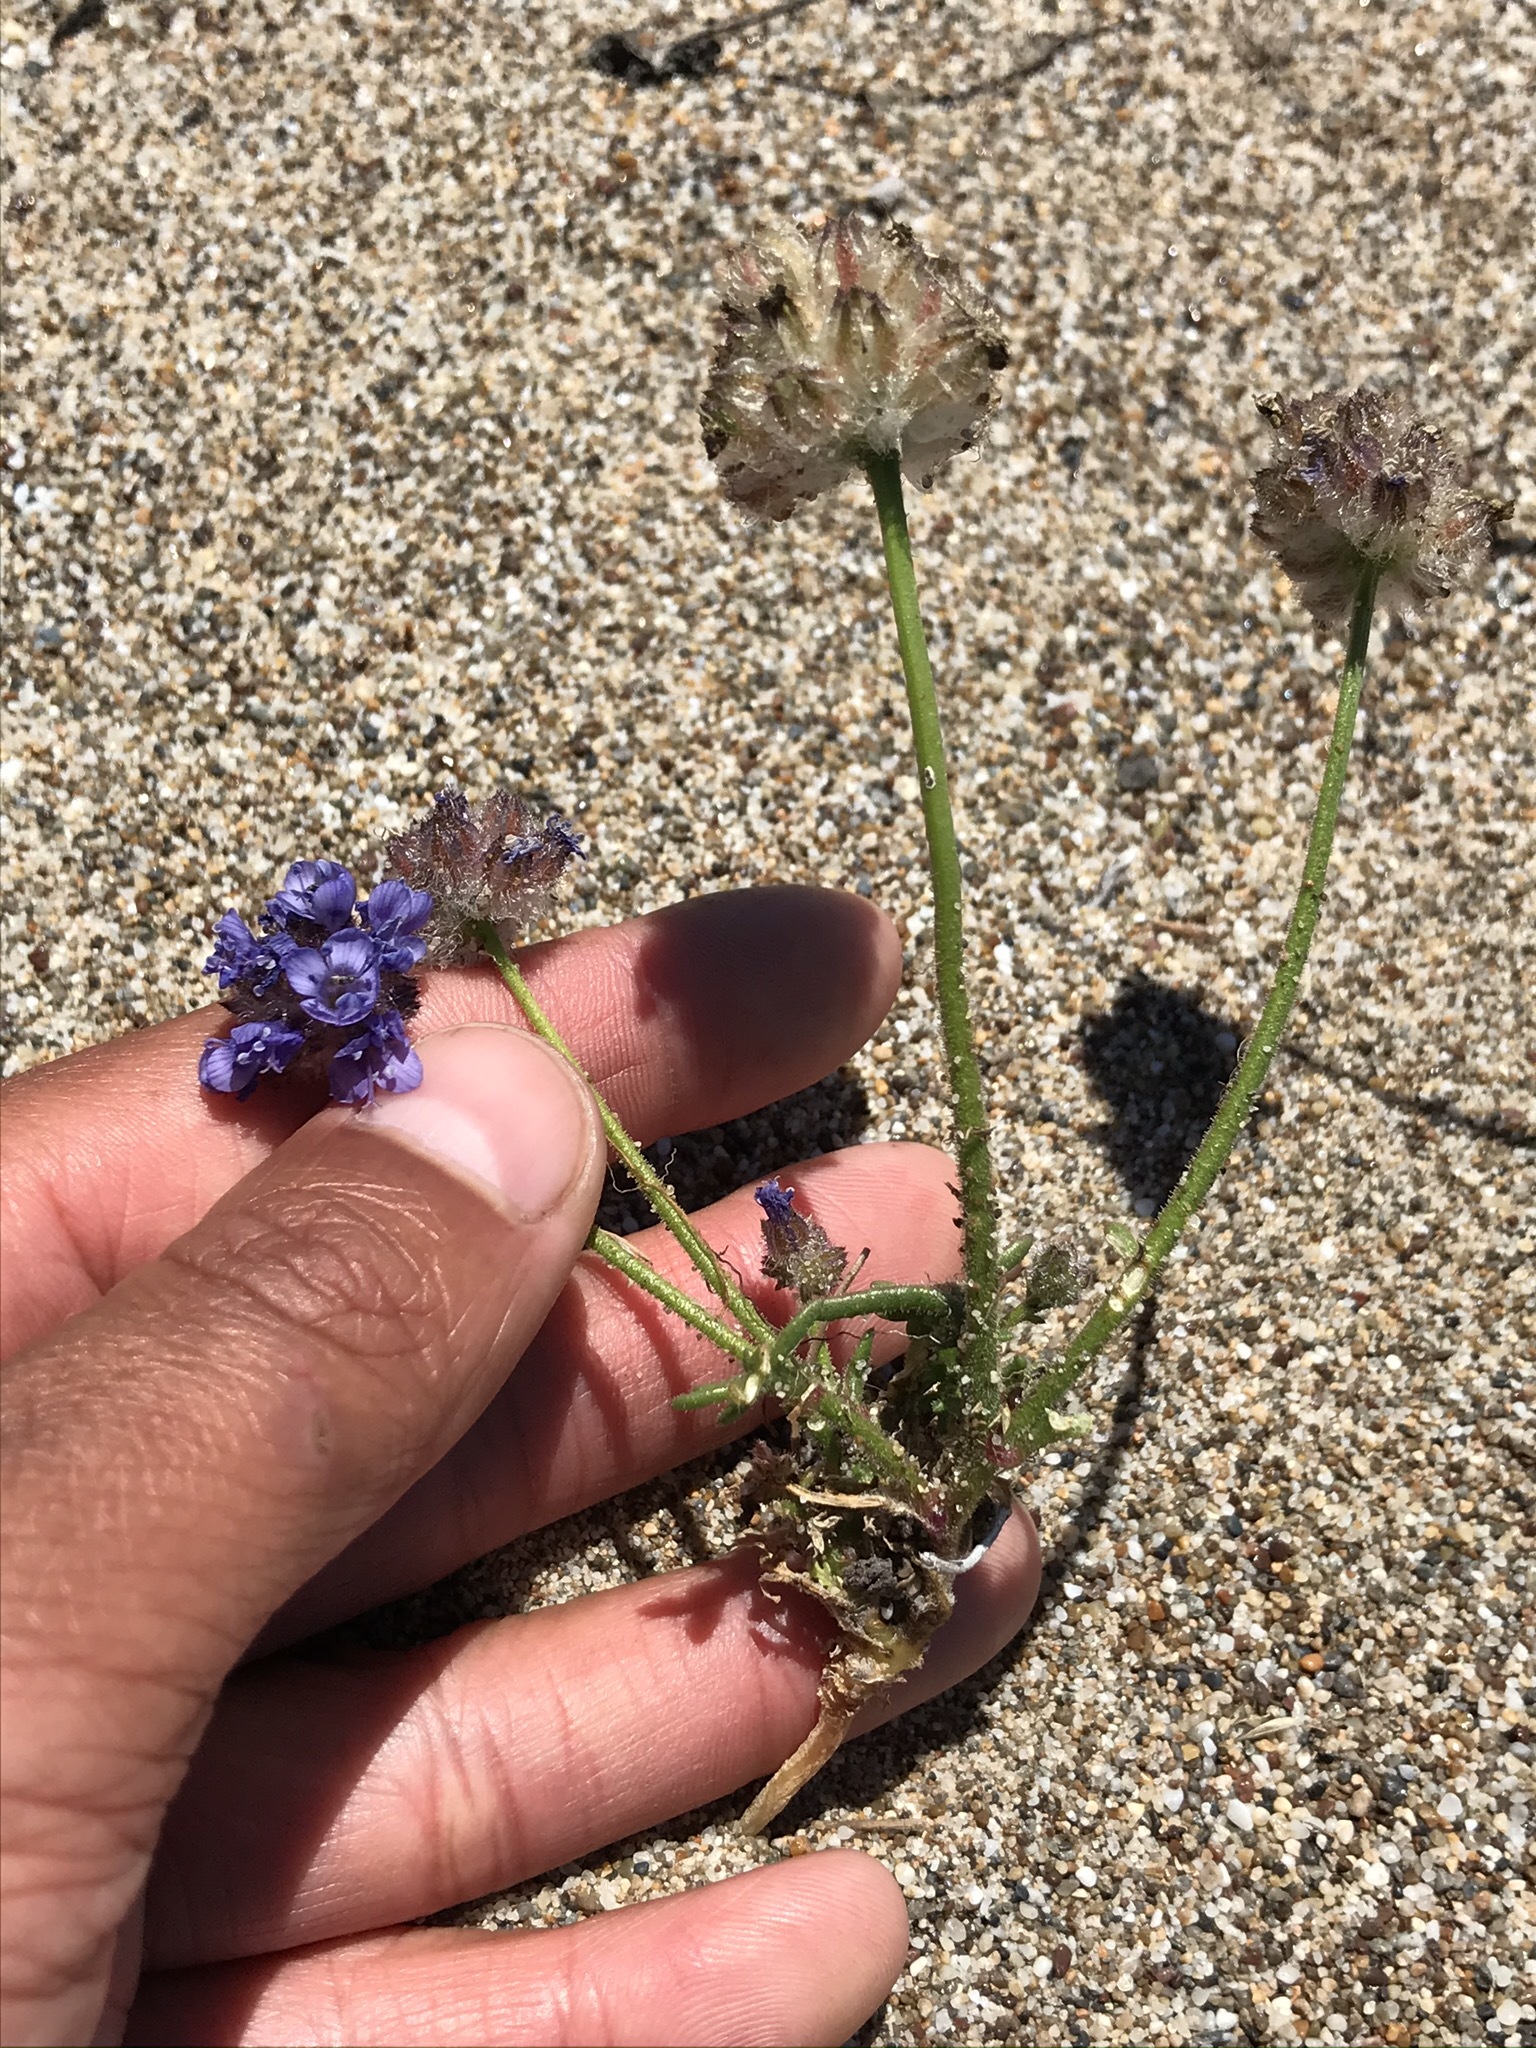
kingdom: Plantae
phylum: Tracheophyta
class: Magnoliopsida
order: Ericales
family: Polemoniaceae
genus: Gilia
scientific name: Gilia capitata
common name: Bluehead gilia
